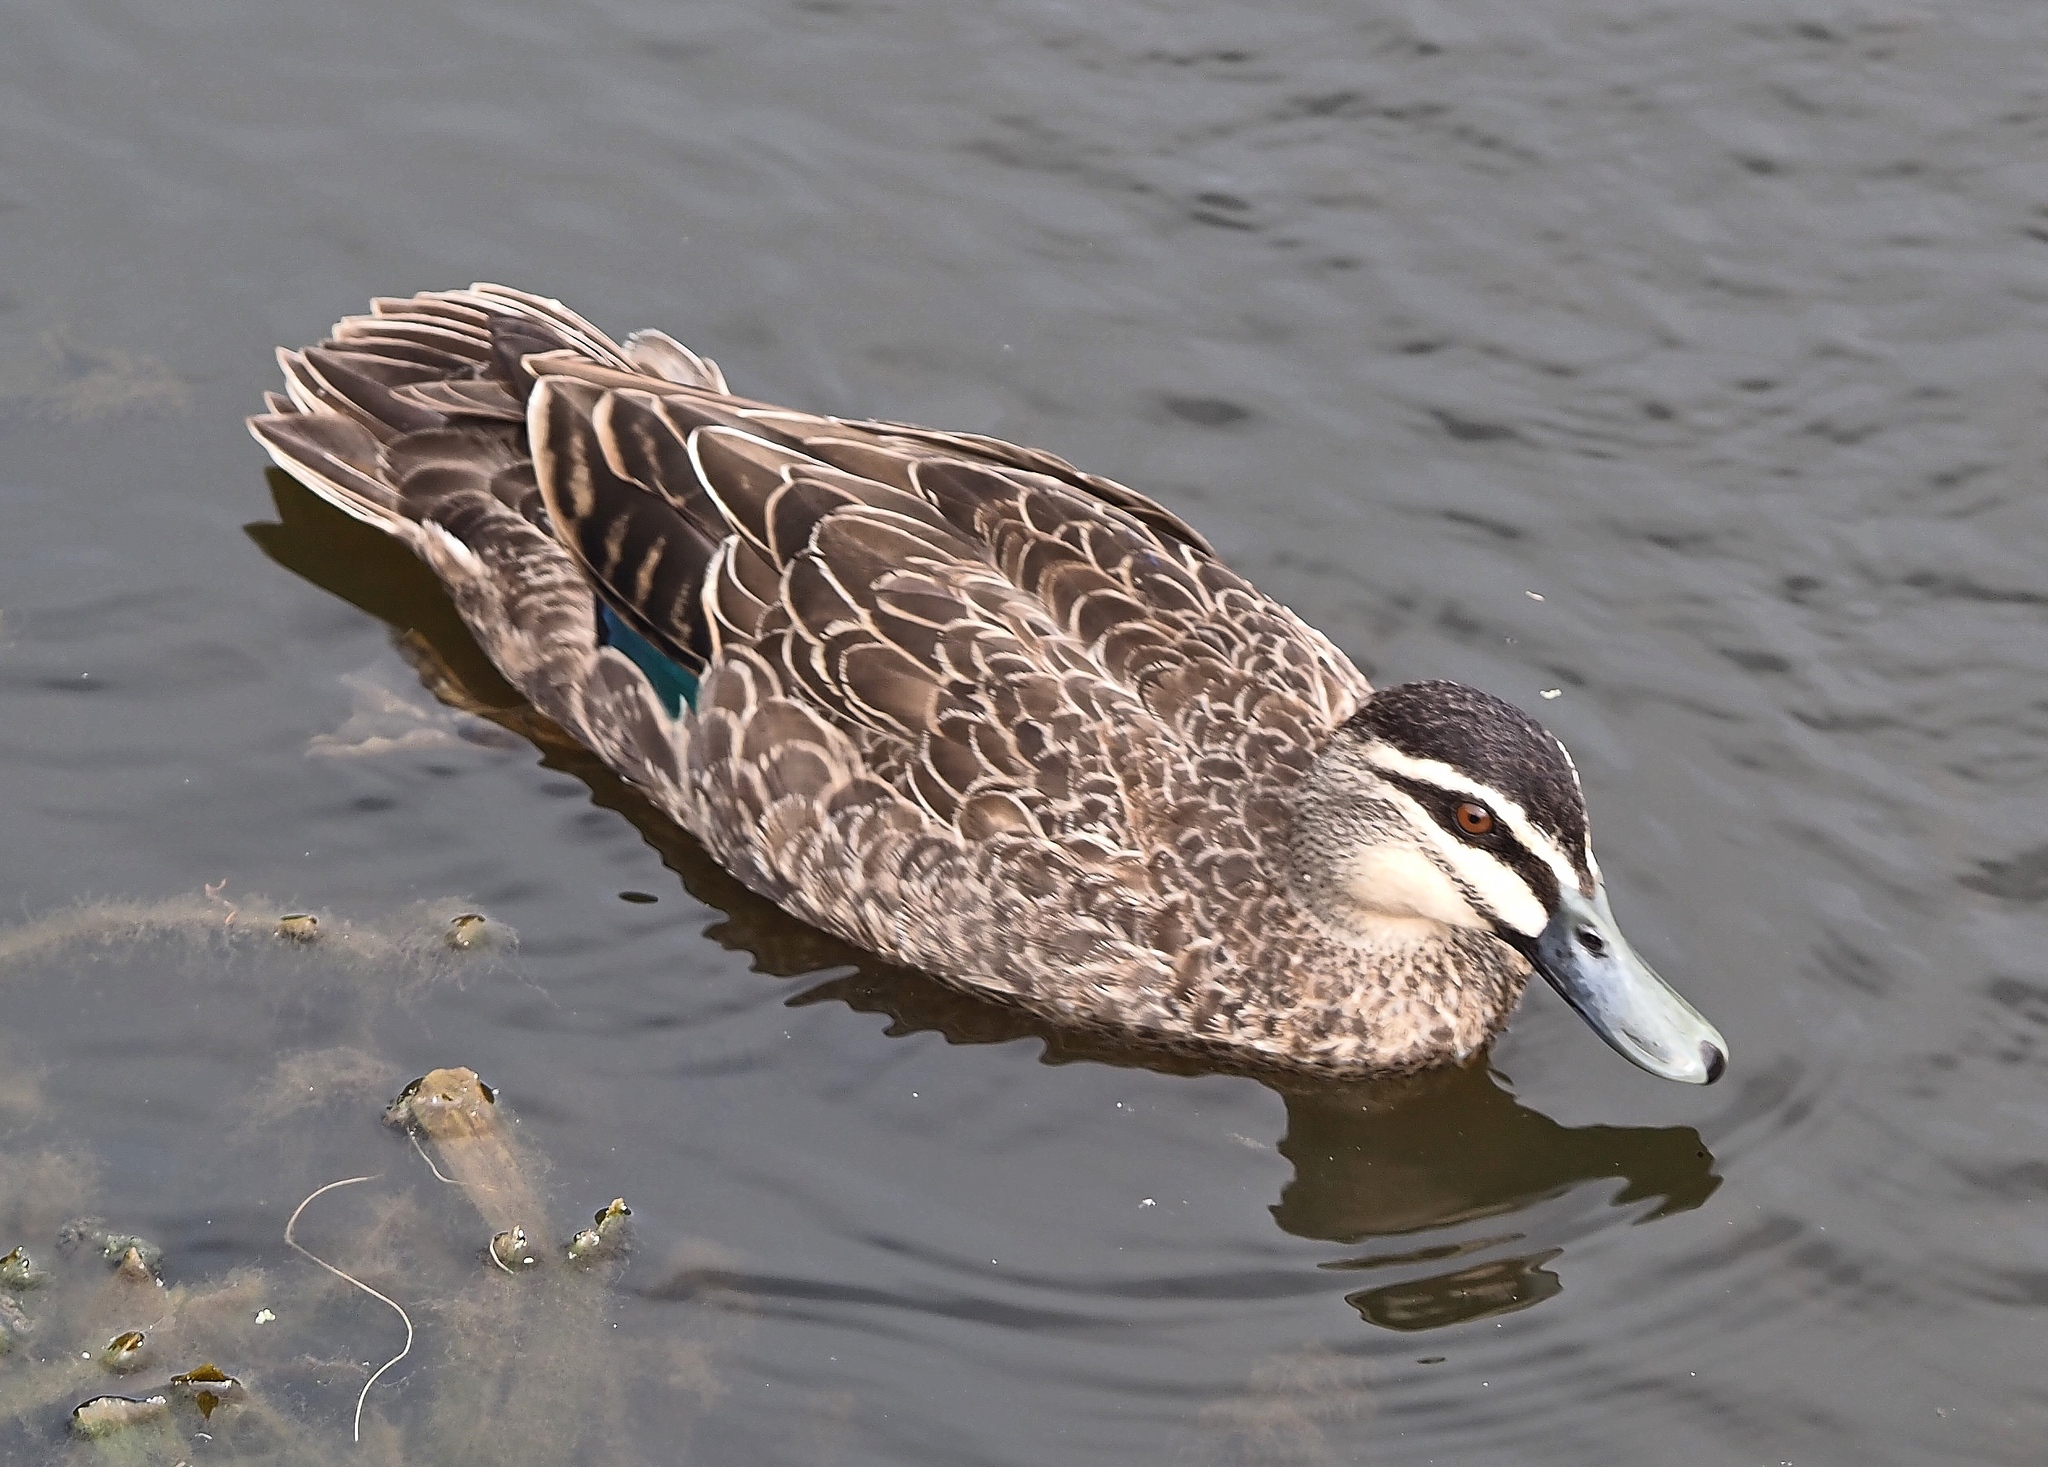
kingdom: Animalia
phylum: Chordata
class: Aves
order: Anseriformes
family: Anatidae
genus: Anas
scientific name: Anas superciliosa
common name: Pacific black duck
